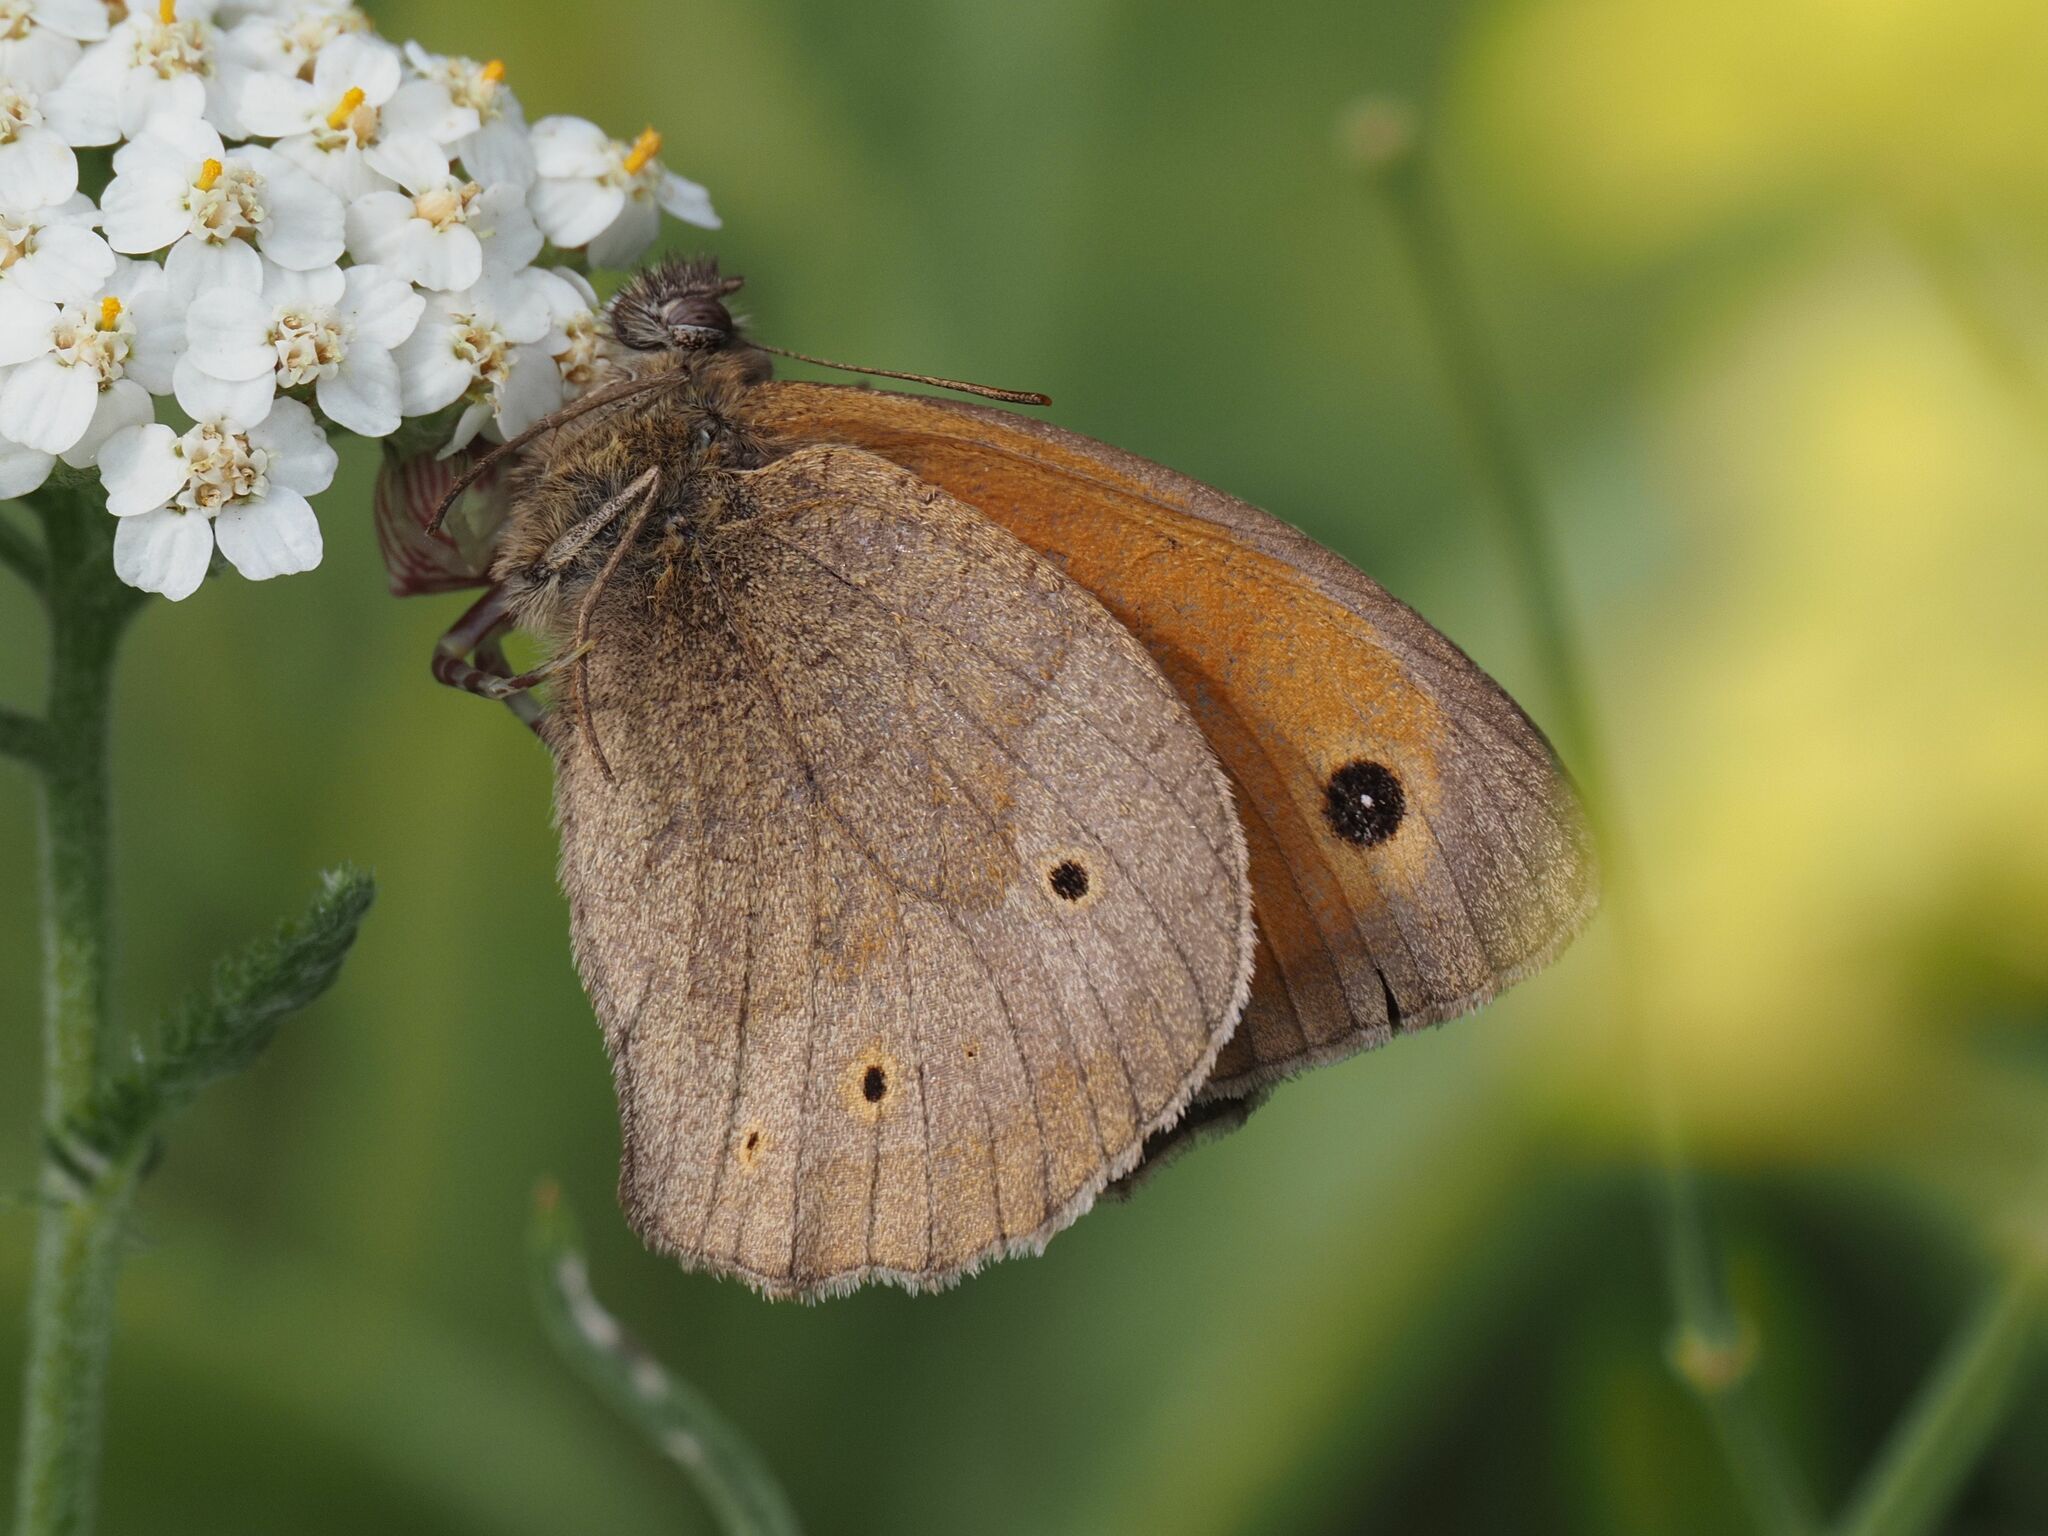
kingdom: Animalia
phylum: Arthropoda
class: Insecta
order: Lepidoptera
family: Nymphalidae
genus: Maniola
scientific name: Maniola jurtina
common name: Meadow brown
